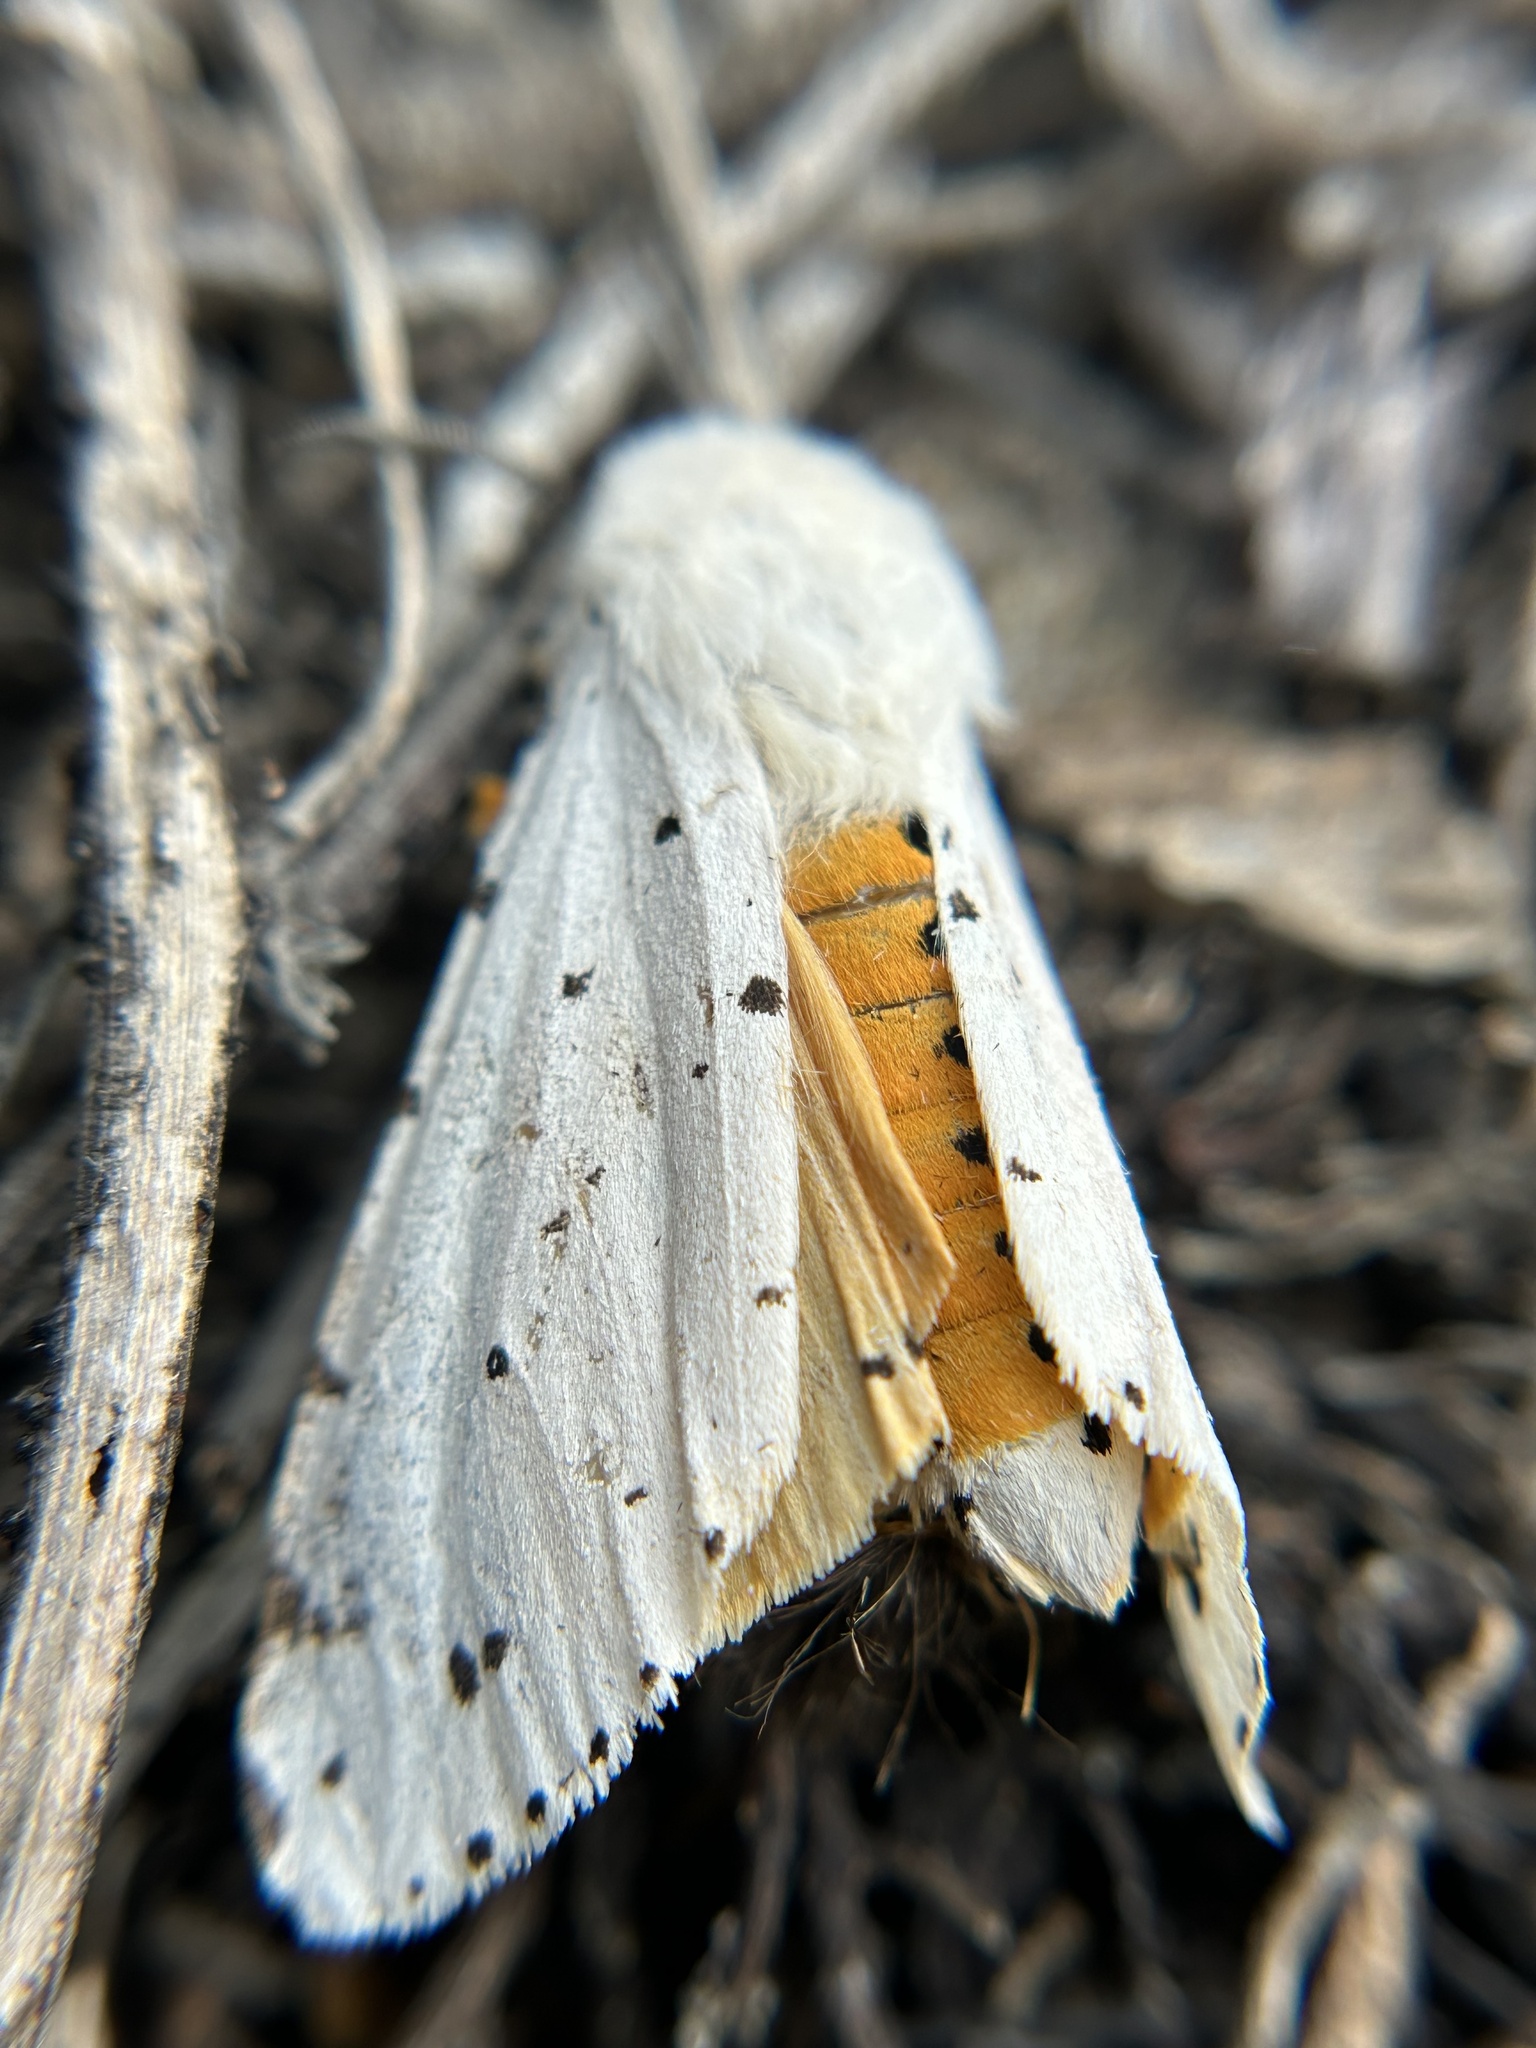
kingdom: Animalia
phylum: Arthropoda
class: Insecta
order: Lepidoptera
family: Erebidae
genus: Estigmene
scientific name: Estigmene acrea
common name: Salt marsh moth
